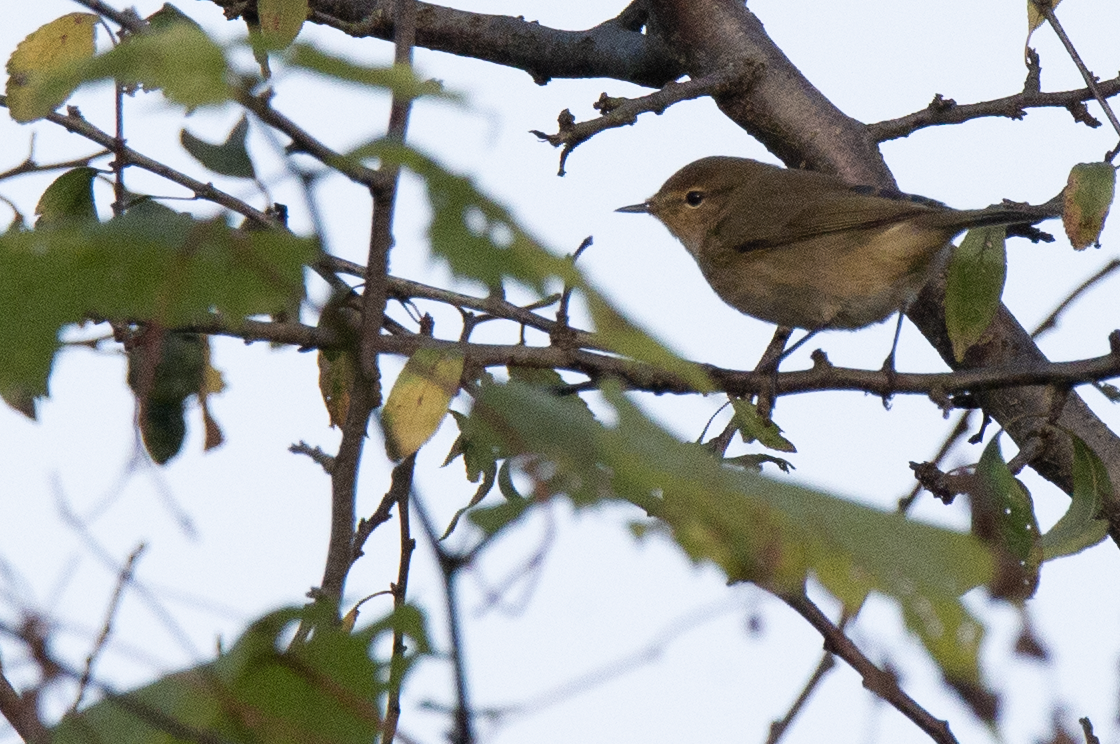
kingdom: Animalia
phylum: Chordata
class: Aves
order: Passeriformes
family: Phylloscopidae
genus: Phylloscopus
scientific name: Phylloscopus collybita
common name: Common chiffchaff
